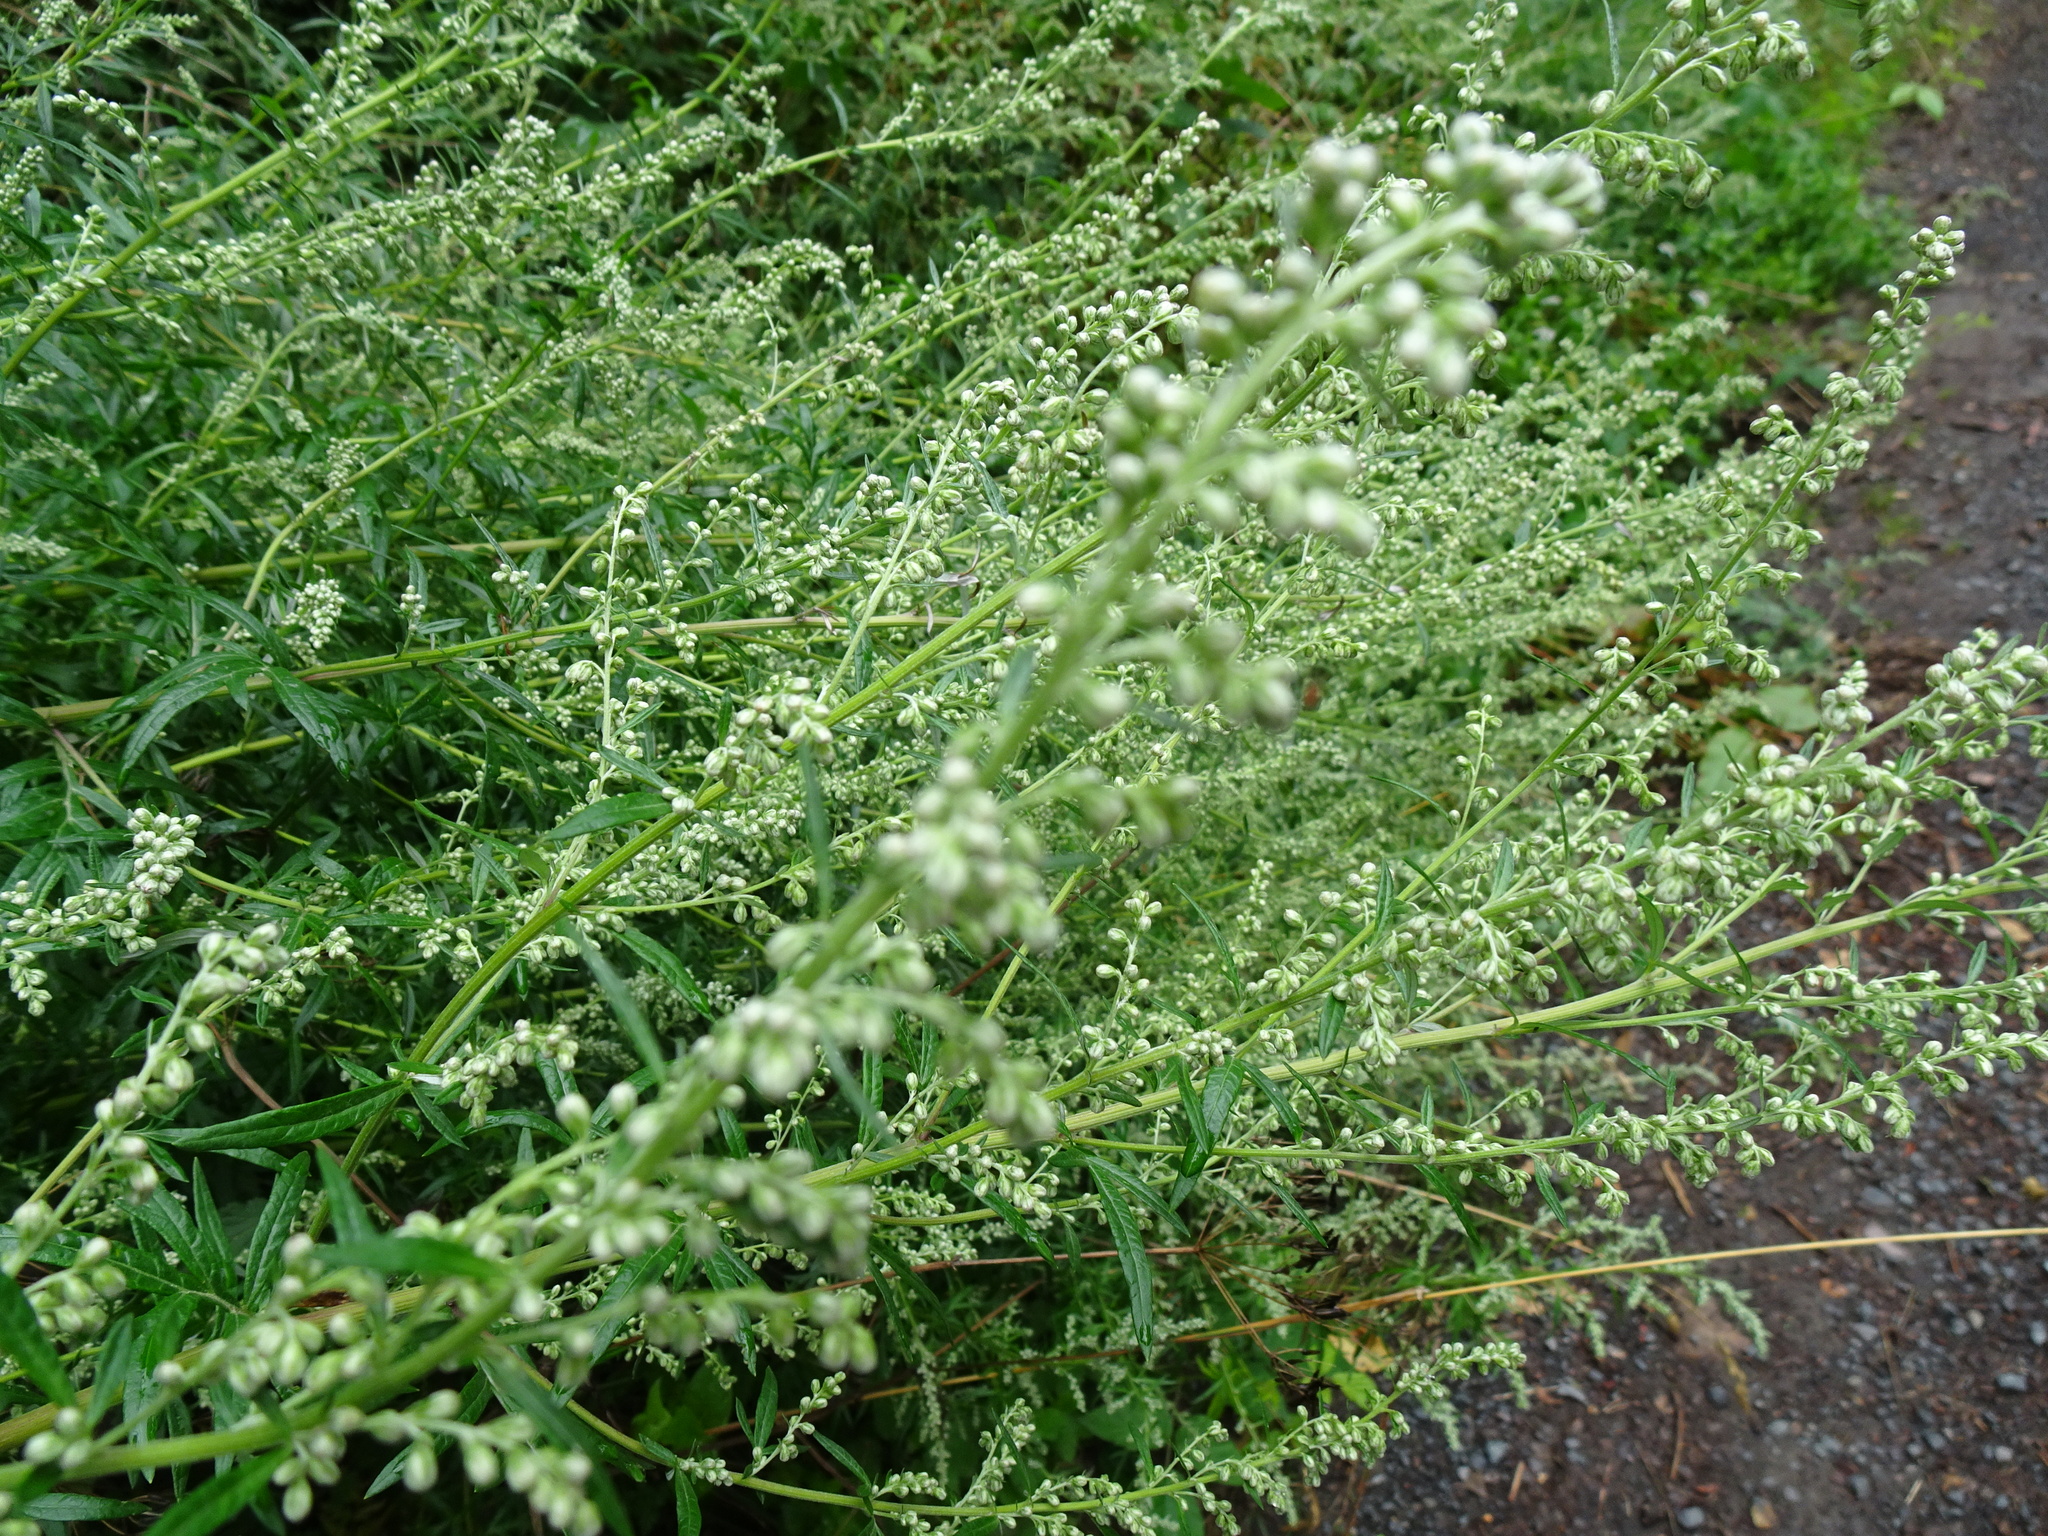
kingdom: Plantae
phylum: Tracheophyta
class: Magnoliopsida
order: Asterales
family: Asteraceae
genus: Artemisia
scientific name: Artemisia vulgaris
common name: Mugwort
